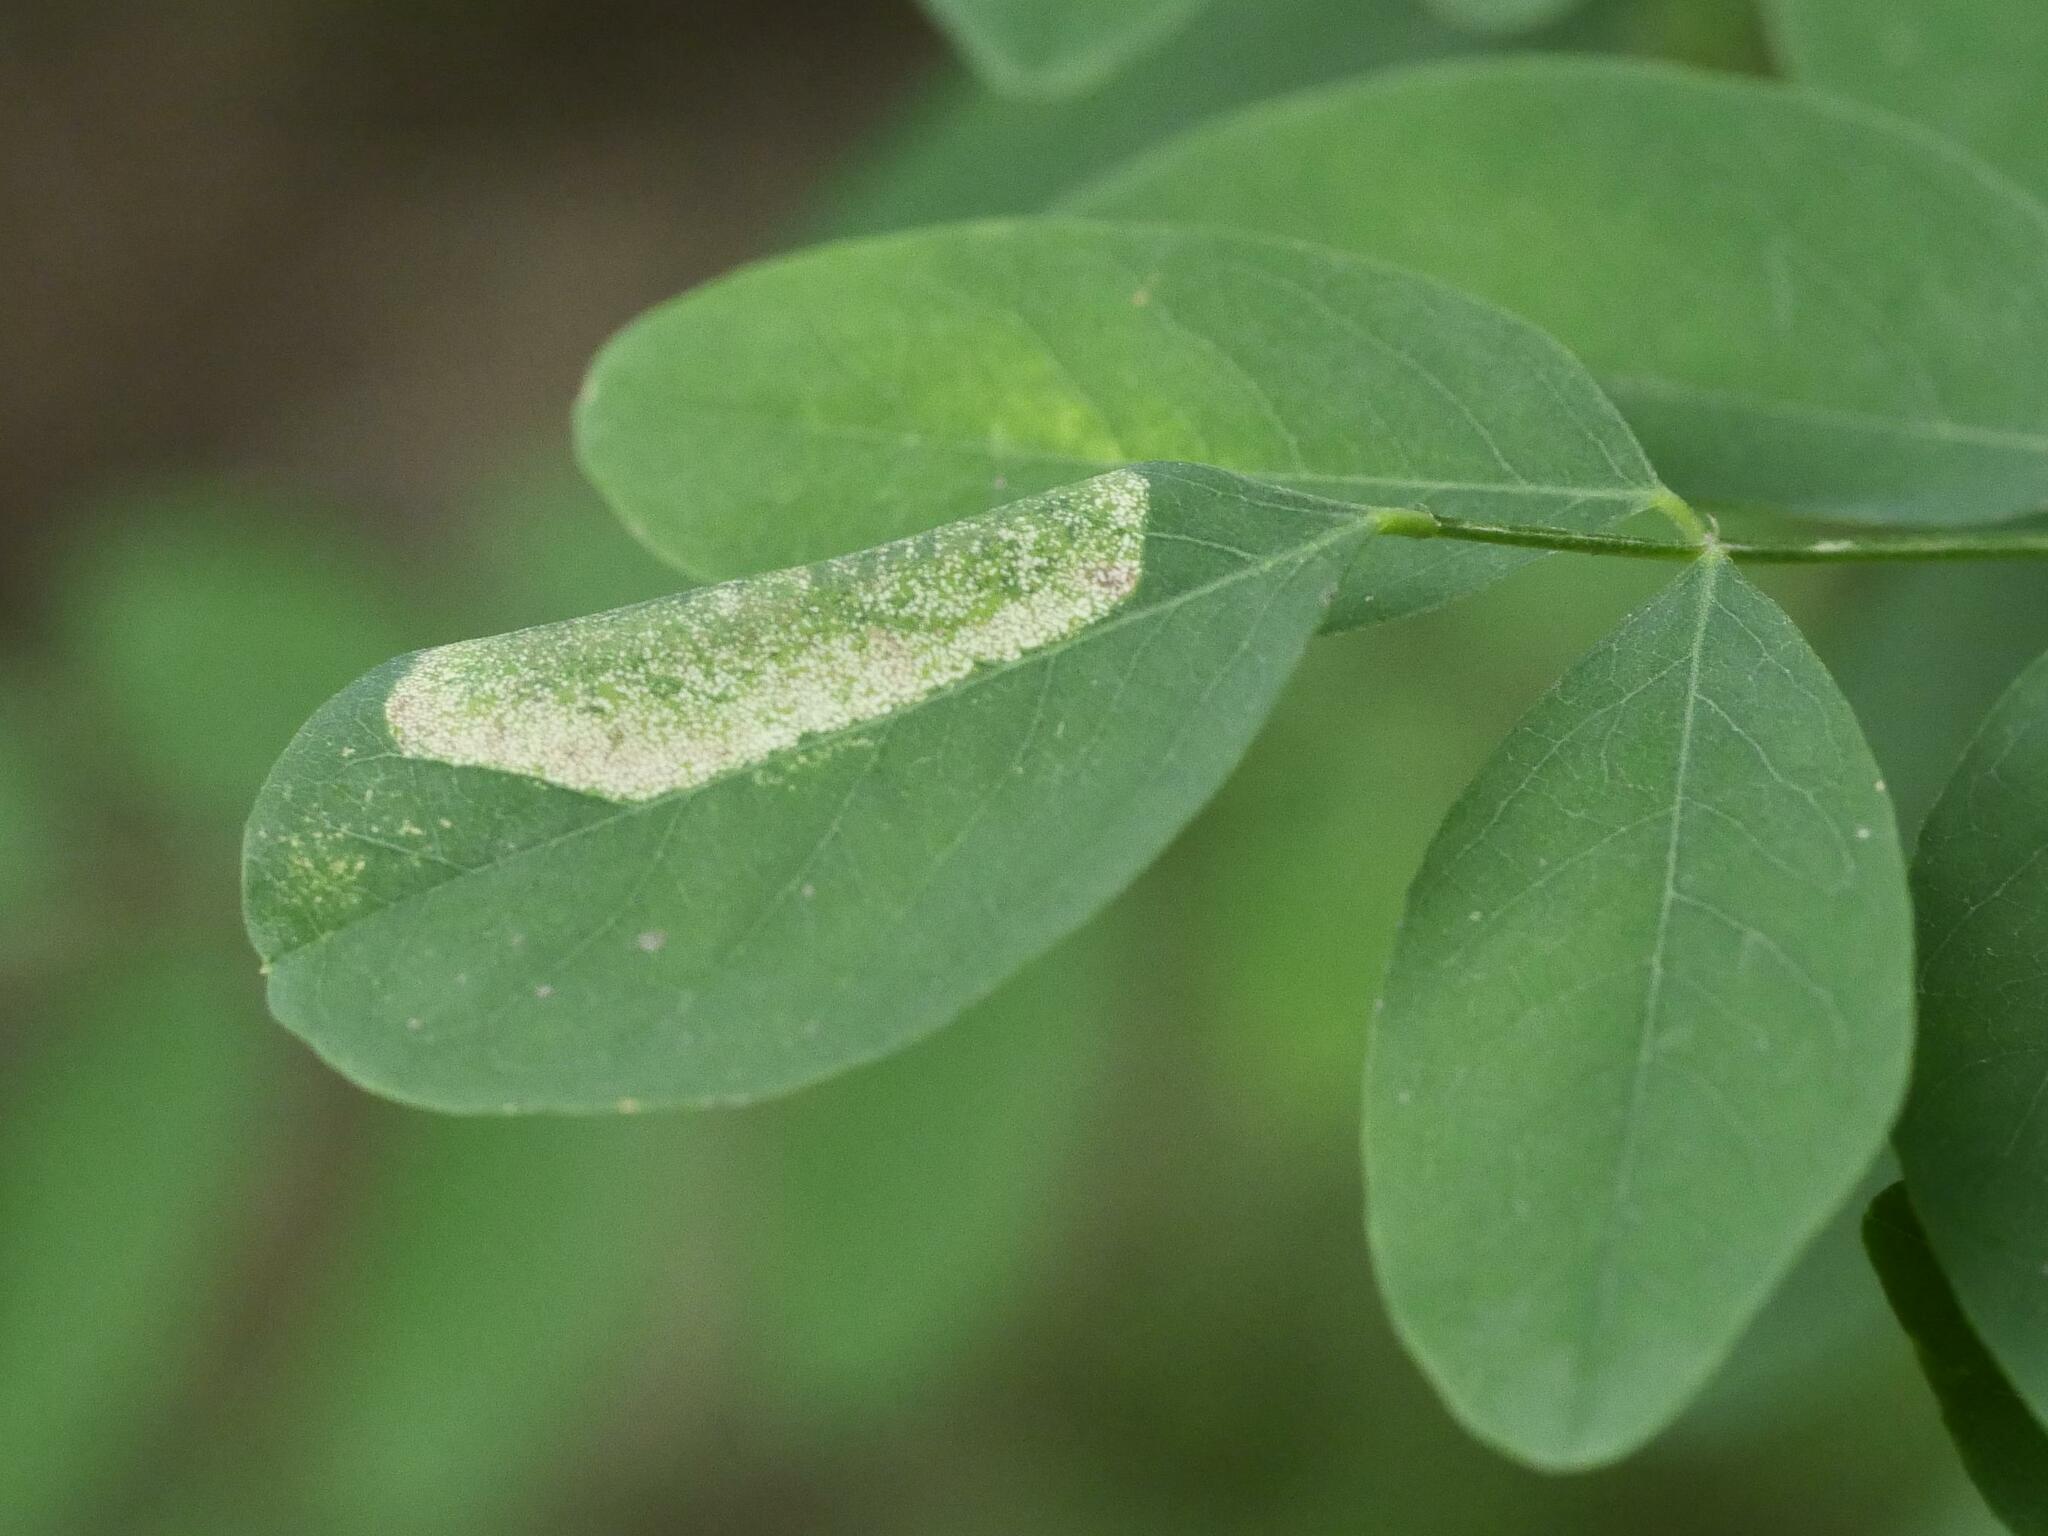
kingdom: Animalia
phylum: Arthropoda
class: Insecta
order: Lepidoptera
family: Gracillariidae
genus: Macrosaccus
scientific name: Macrosaccus robiniella
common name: Leaf blotch miner moth
